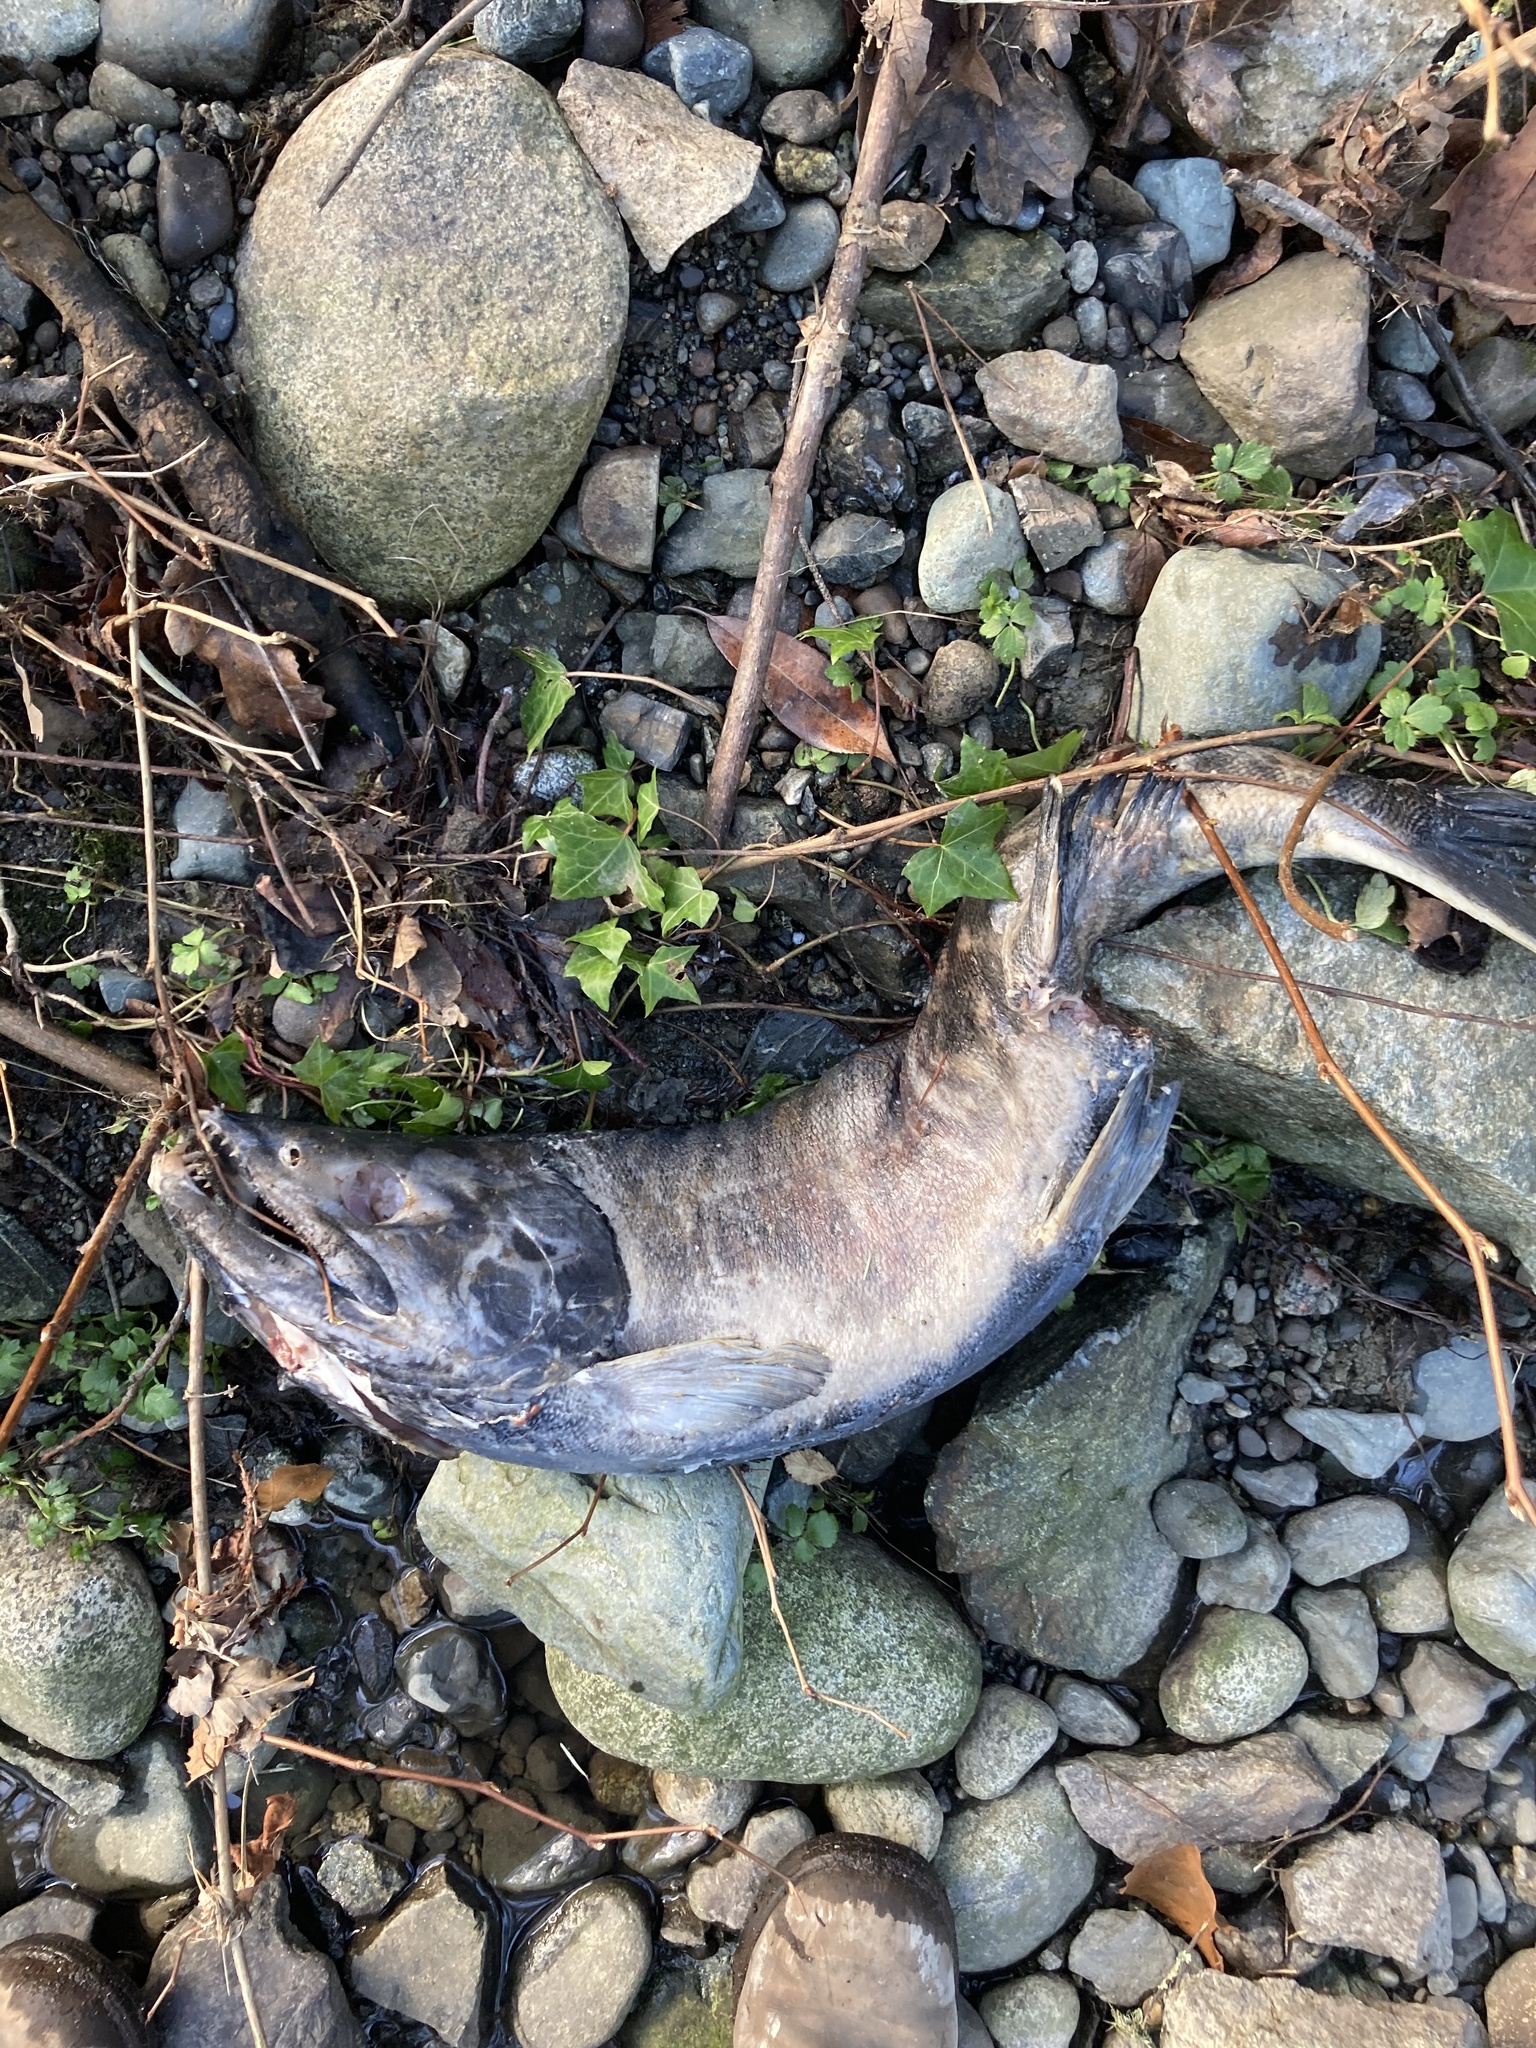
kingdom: Animalia
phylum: Chordata
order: Salmoniformes
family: Salmonidae
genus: Oncorhynchus
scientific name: Oncorhynchus keta
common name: Chum salmon
